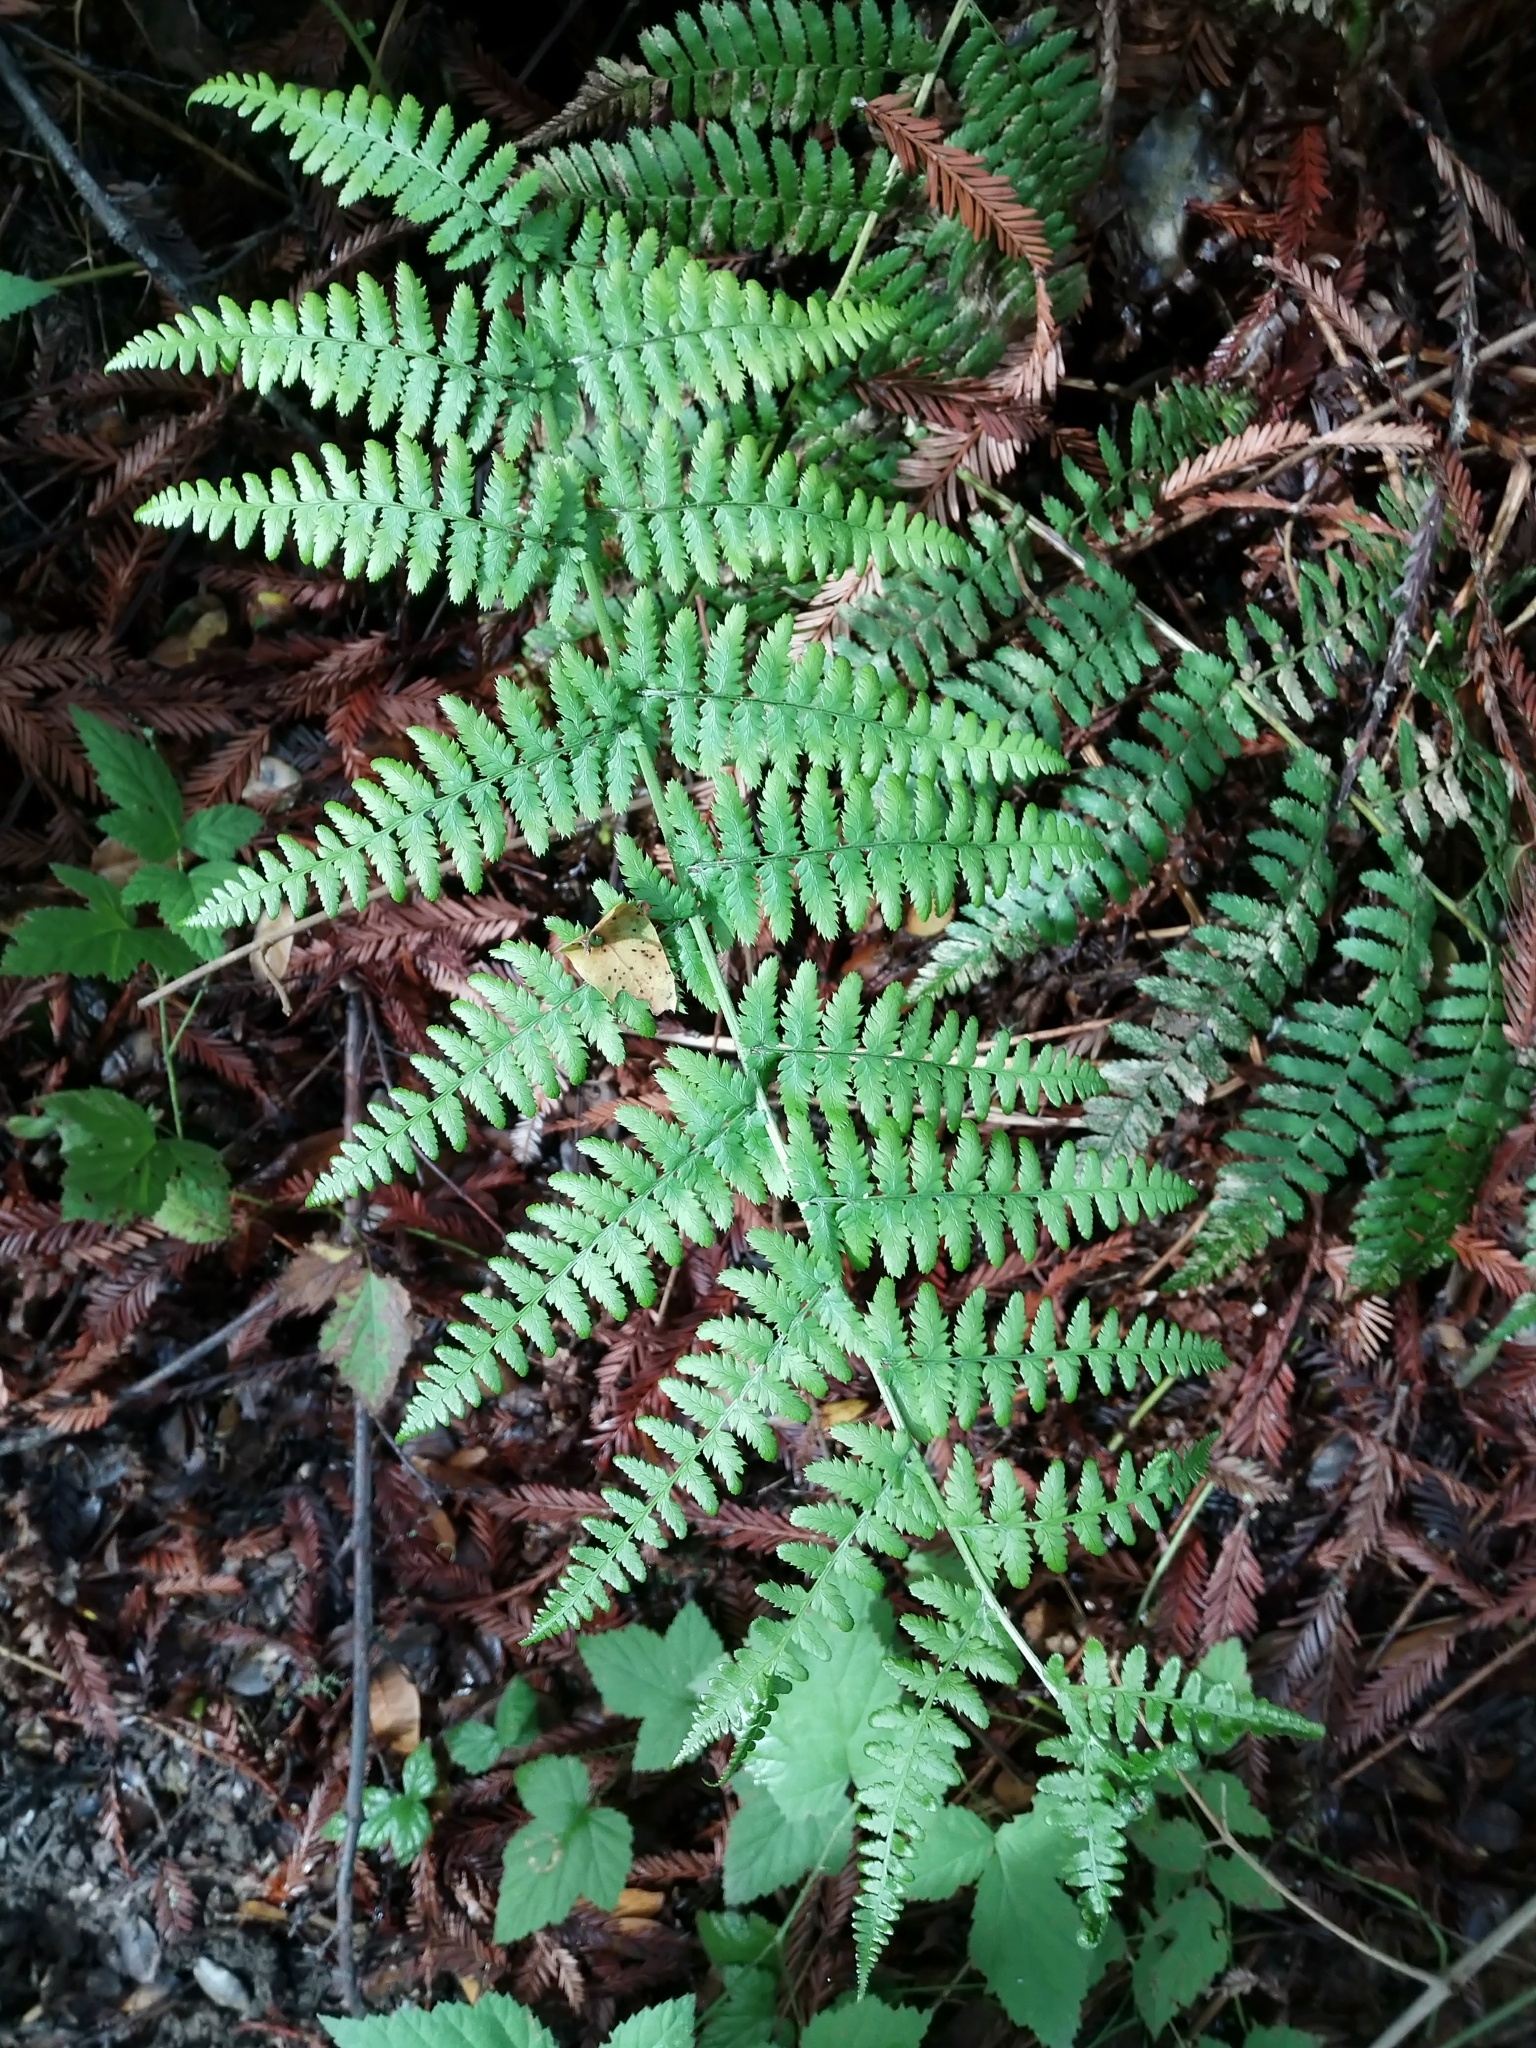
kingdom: Plantae
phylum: Tracheophyta
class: Polypodiopsida
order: Polypodiales
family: Dryopteridaceae
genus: Dryopteris
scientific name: Dryopteris arguta
